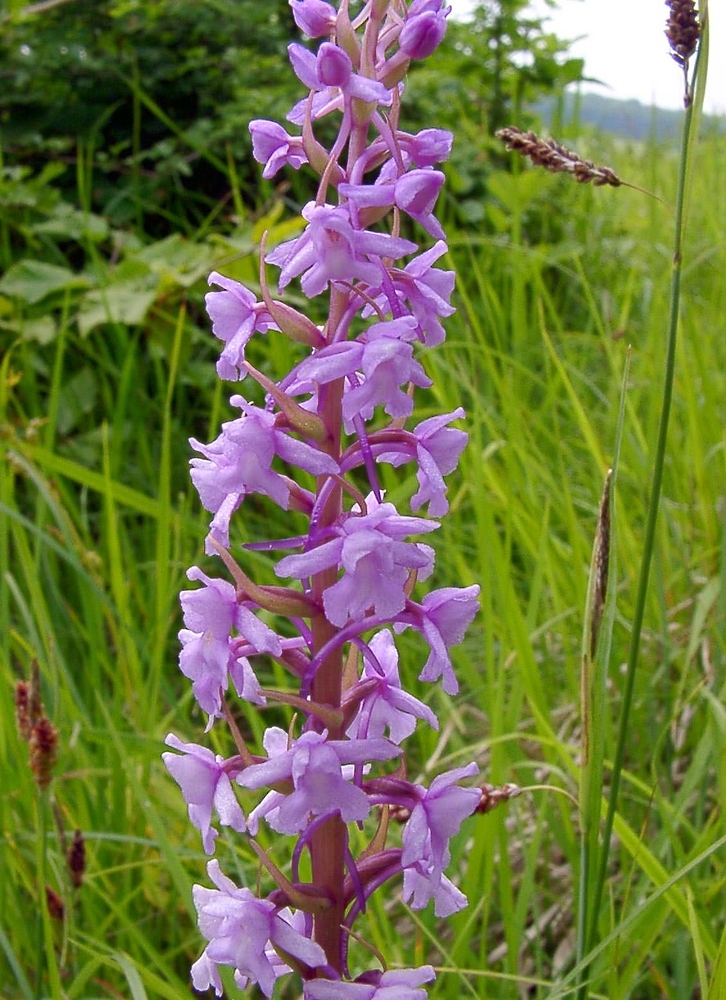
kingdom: Plantae
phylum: Tracheophyta
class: Liliopsida
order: Asparagales
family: Orchidaceae
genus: Gymnadenia
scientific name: Gymnadenia conopsea
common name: Fragrant orchid
